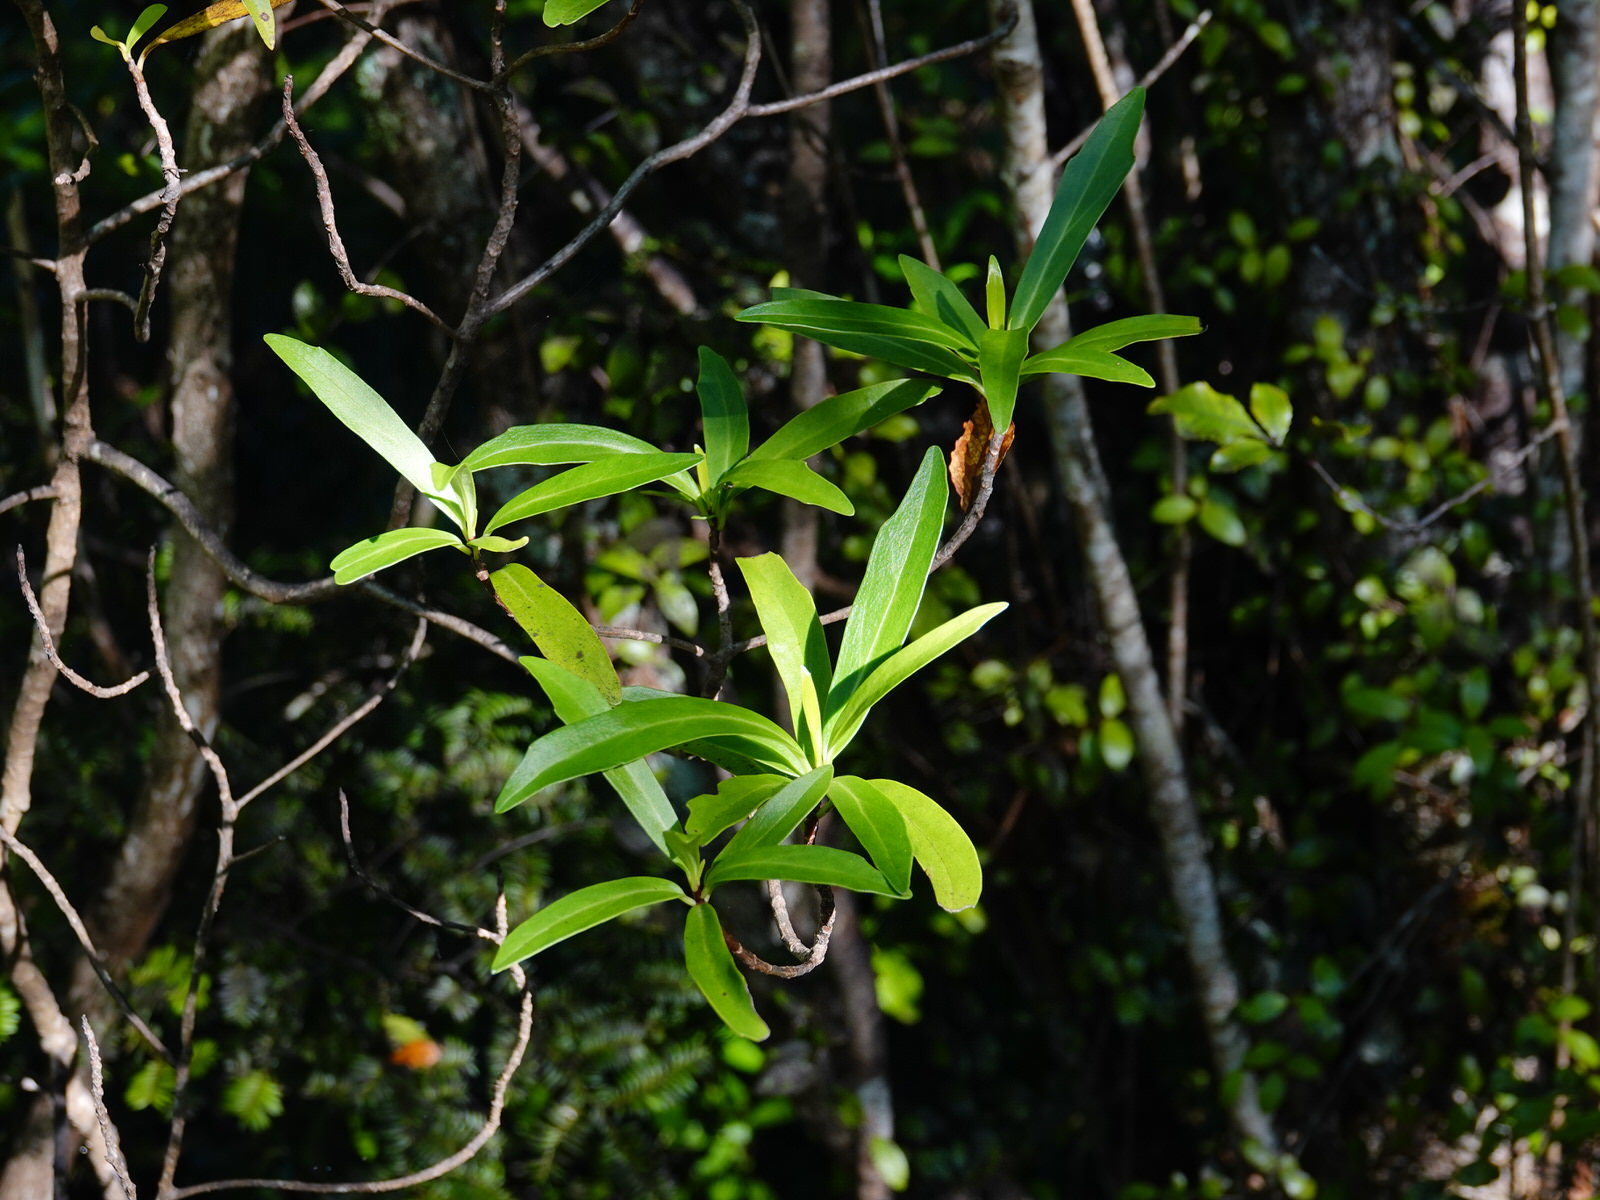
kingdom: Plantae
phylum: Tracheophyta
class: Magnoliopsida
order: Asterales
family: Asteraceae
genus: Brachyglottis
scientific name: Brachyglottis kirkii
